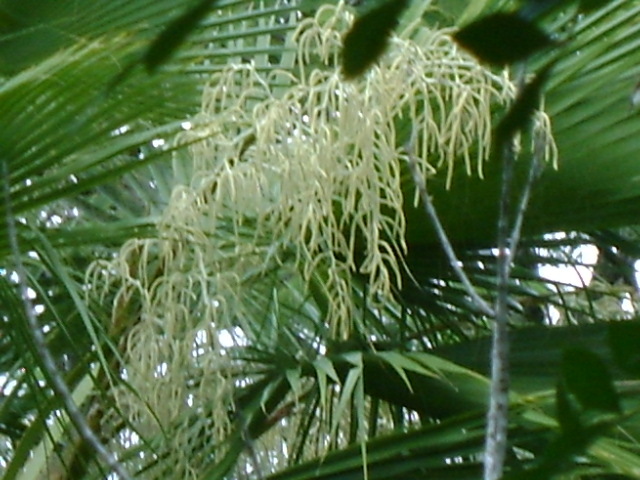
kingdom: Plantae
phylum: Tracheophyta
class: Liliopsida
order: Arecales
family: Arecaceae
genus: Brahea
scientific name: Brahea dulcis
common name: Apak palm
